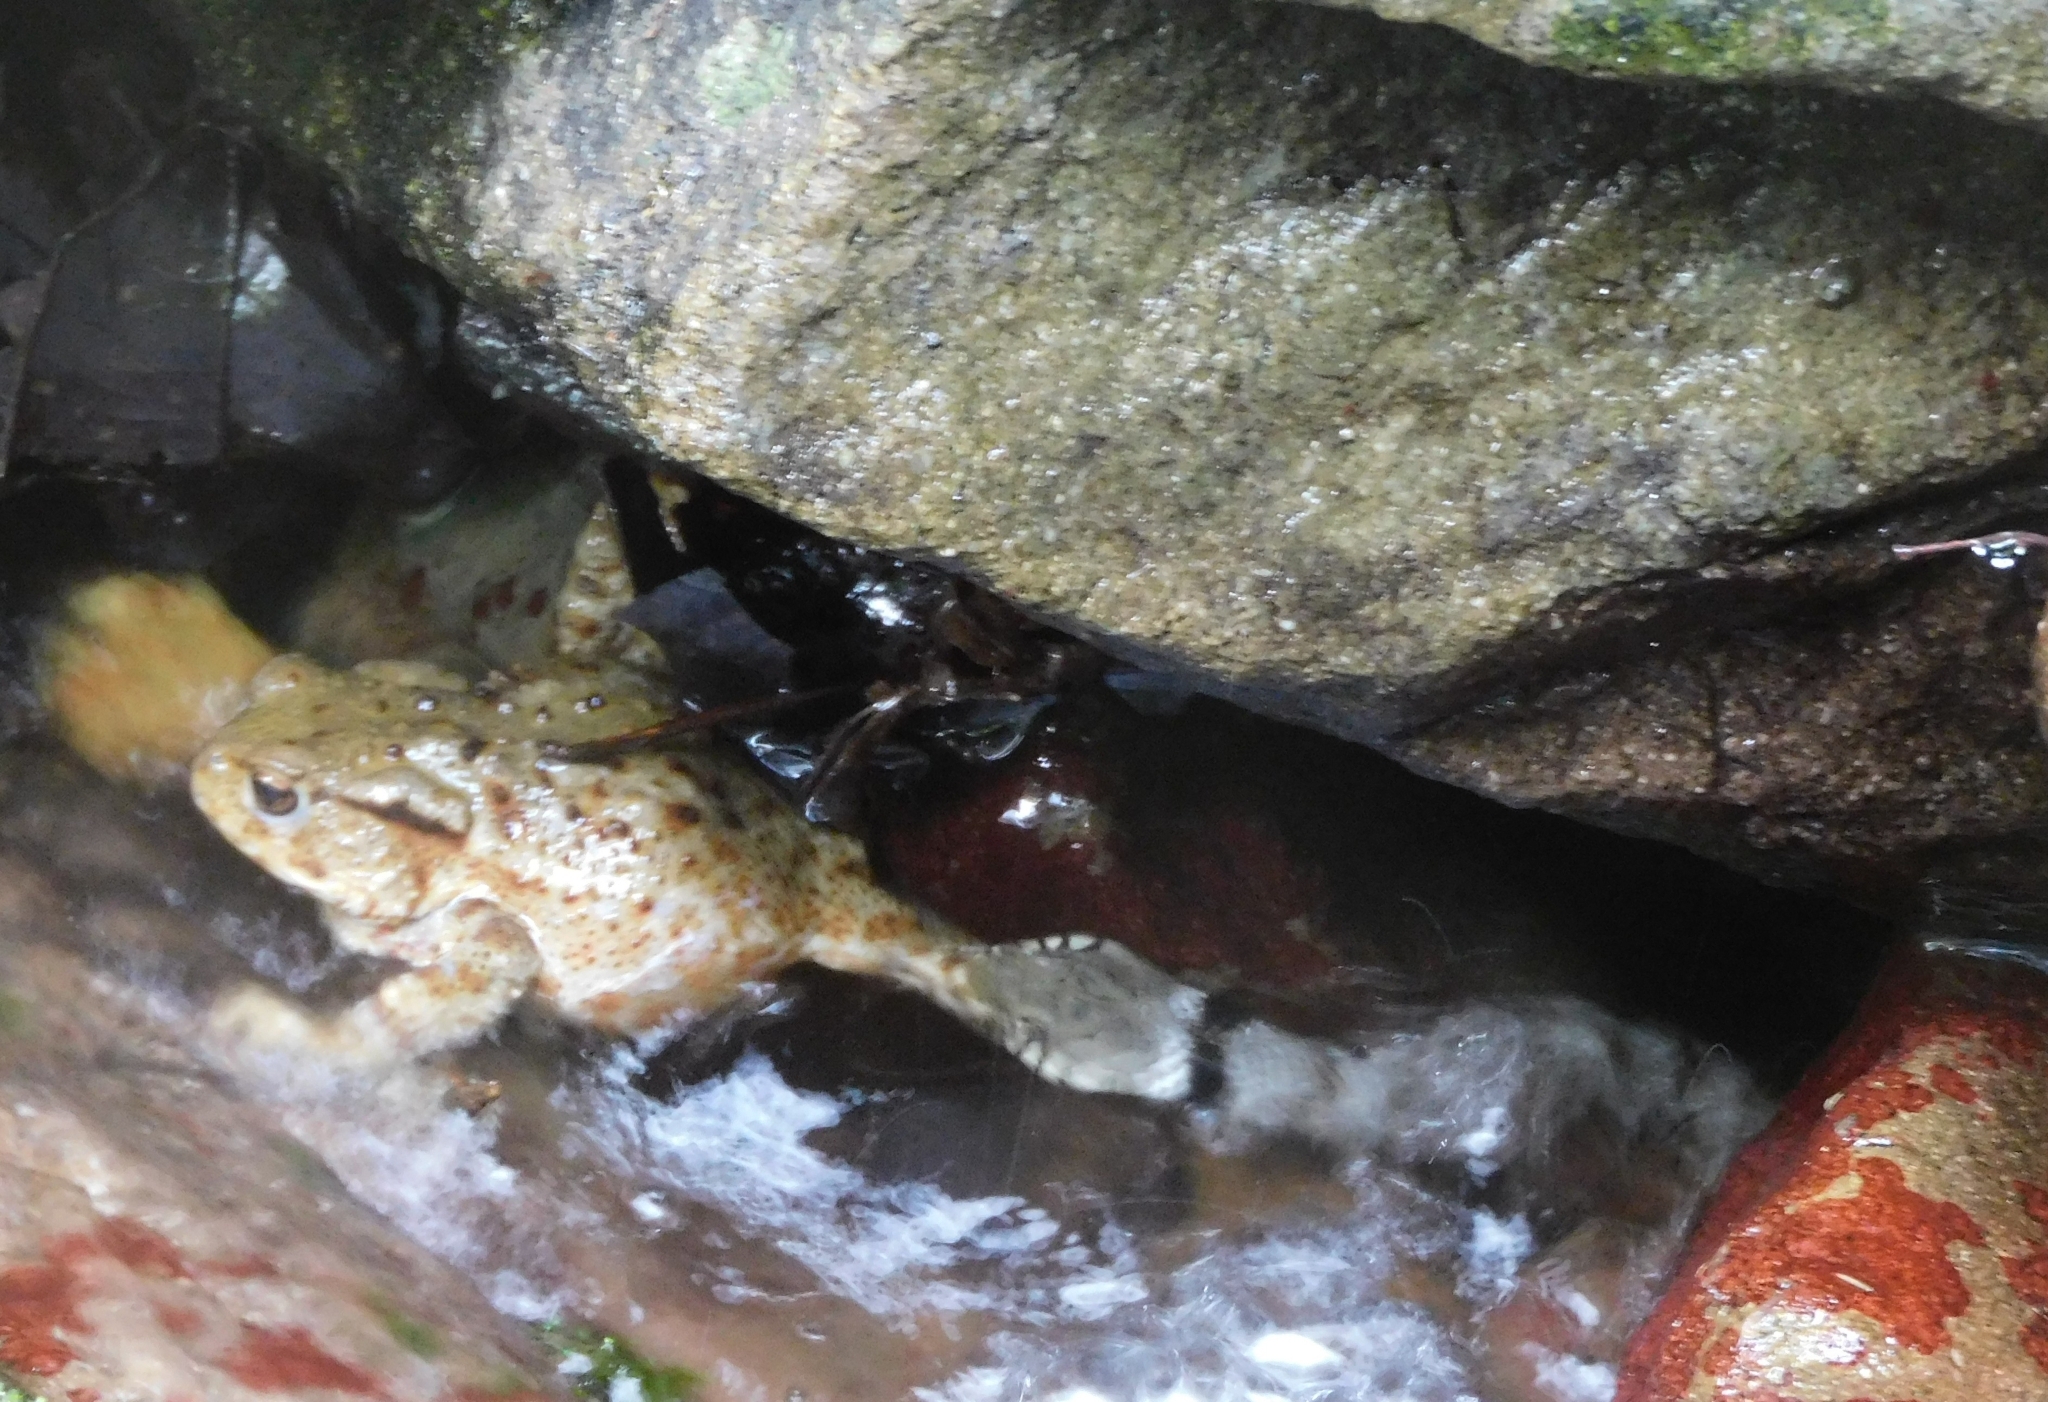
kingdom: Animalia
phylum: Chordata
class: Squamata
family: Colubridae
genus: Natrix
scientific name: Natrix helvetica
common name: Banded grass snake
